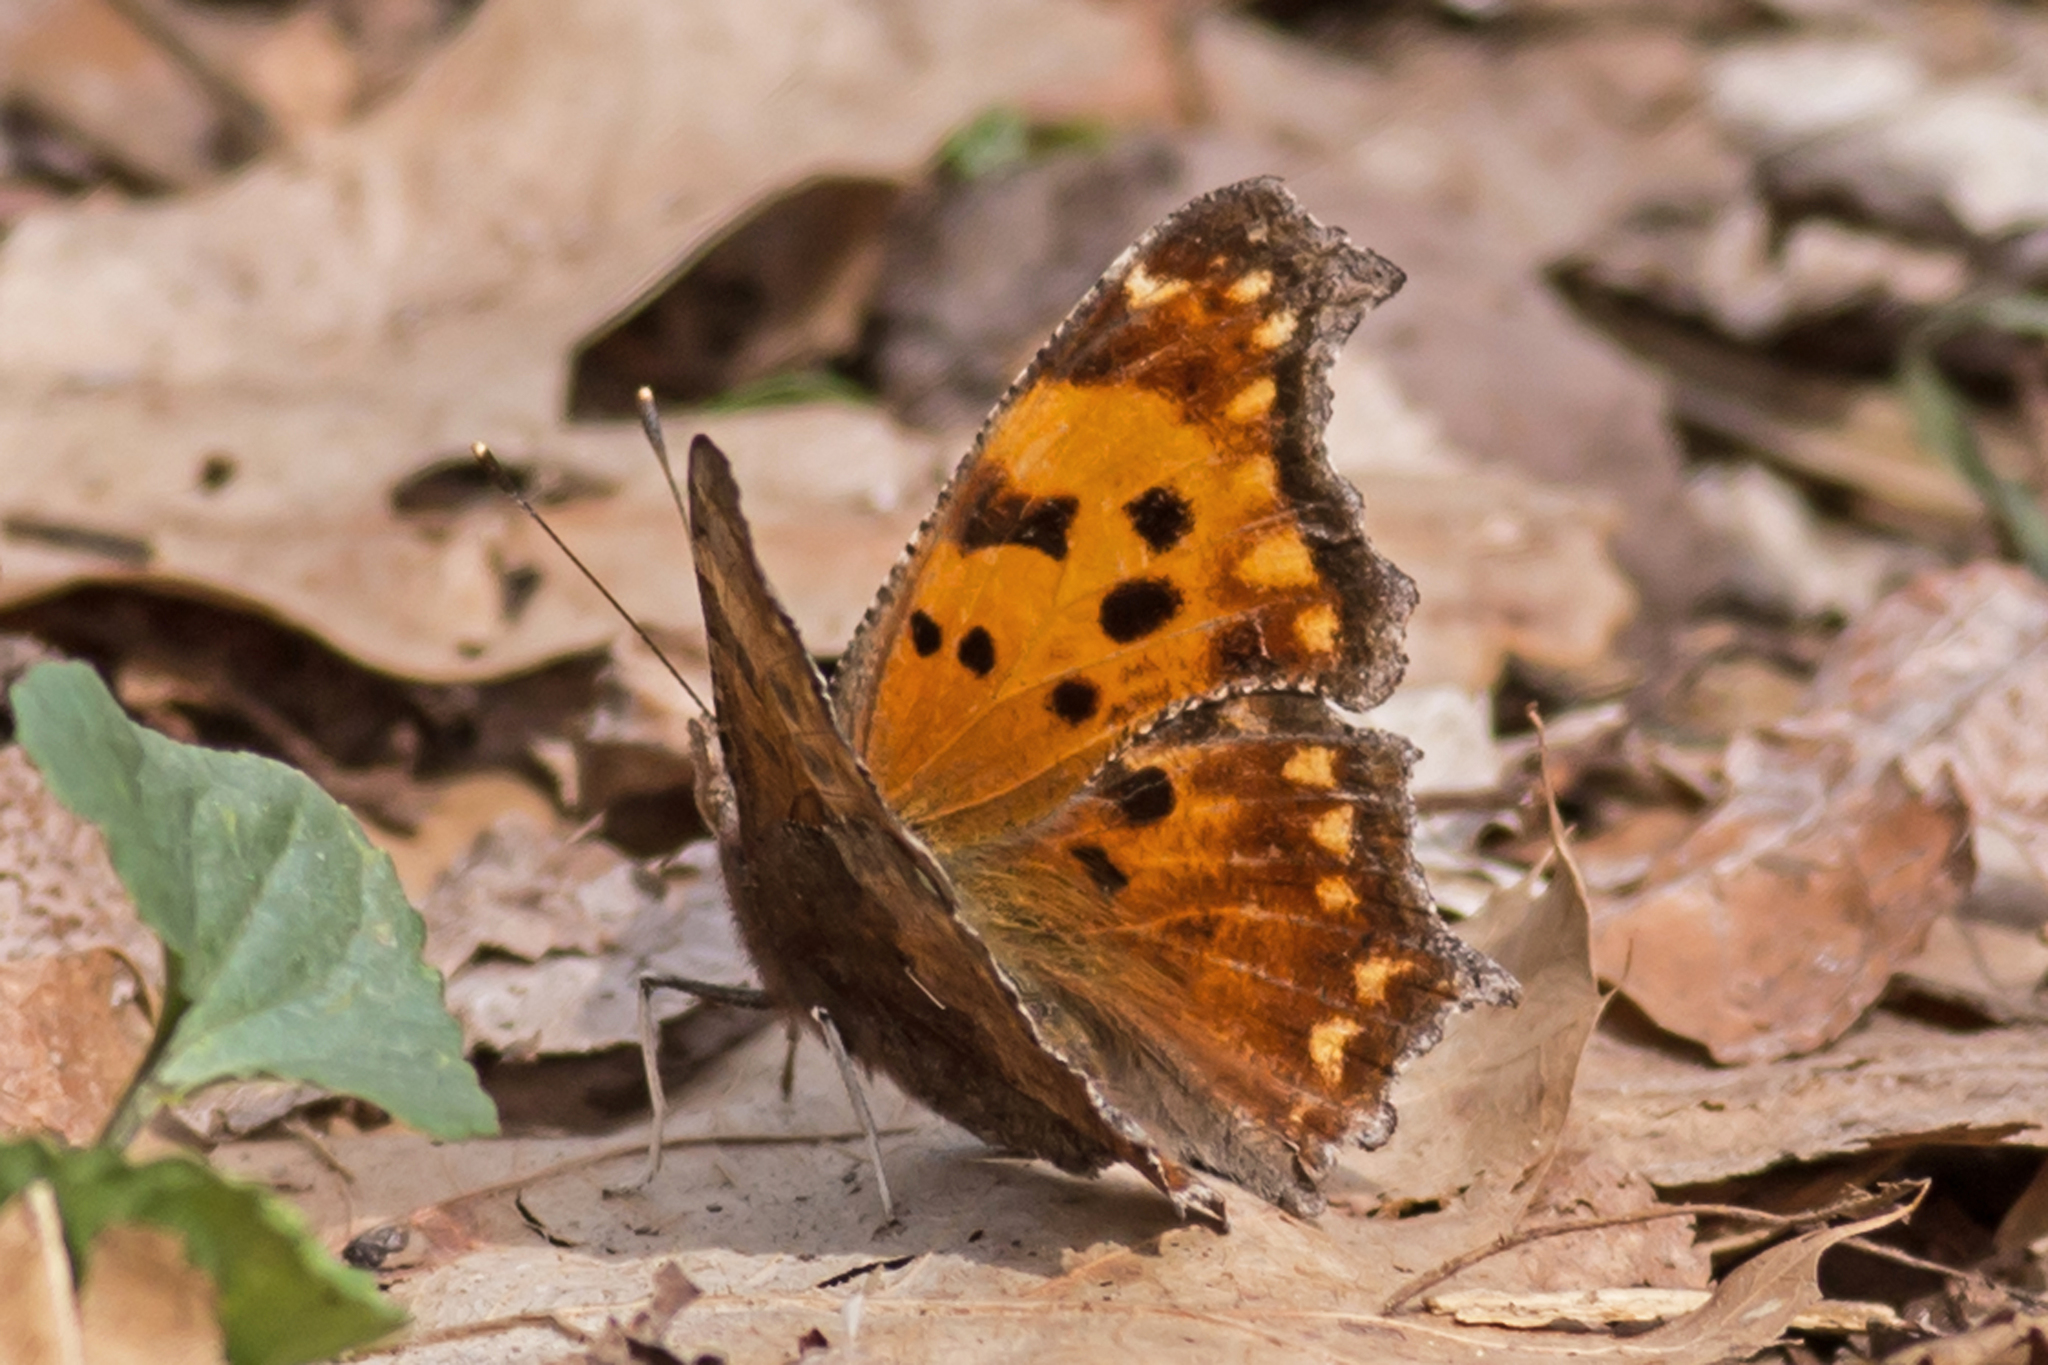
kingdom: Animalia
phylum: Arthropoda
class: Insecta
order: Lepidoptera
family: Nymphalidae
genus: Polygonia
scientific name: Polygonia comma
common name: Eastern comma
